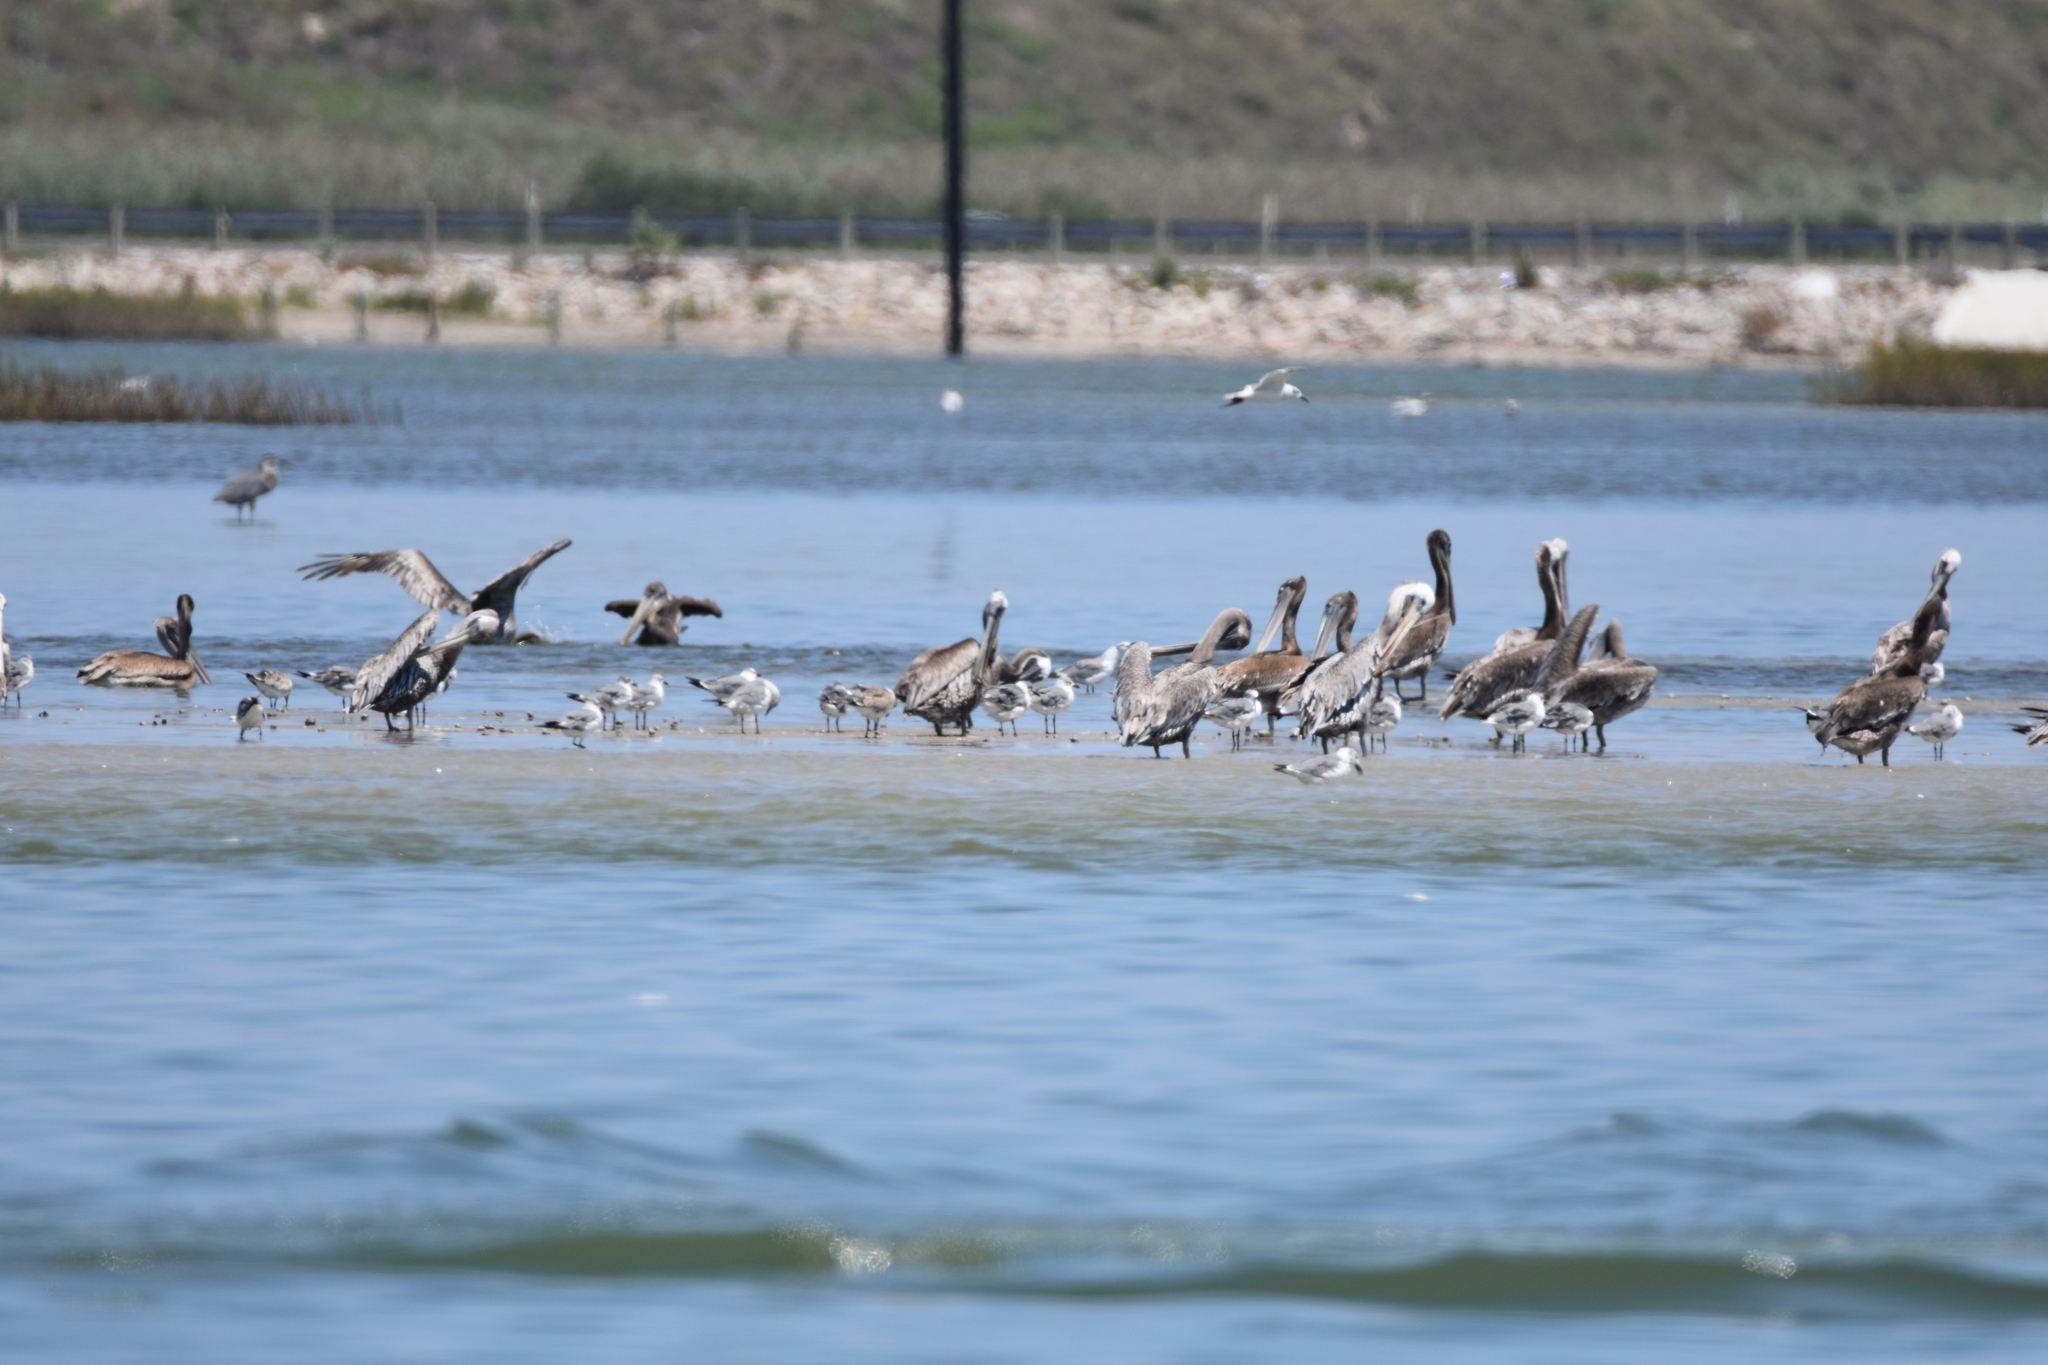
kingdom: Animalia
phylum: Chordata
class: Aves
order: Charadriiformes
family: Laridae
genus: Leucophaeus
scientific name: Leucophaeus atricilla
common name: Laughing gull
